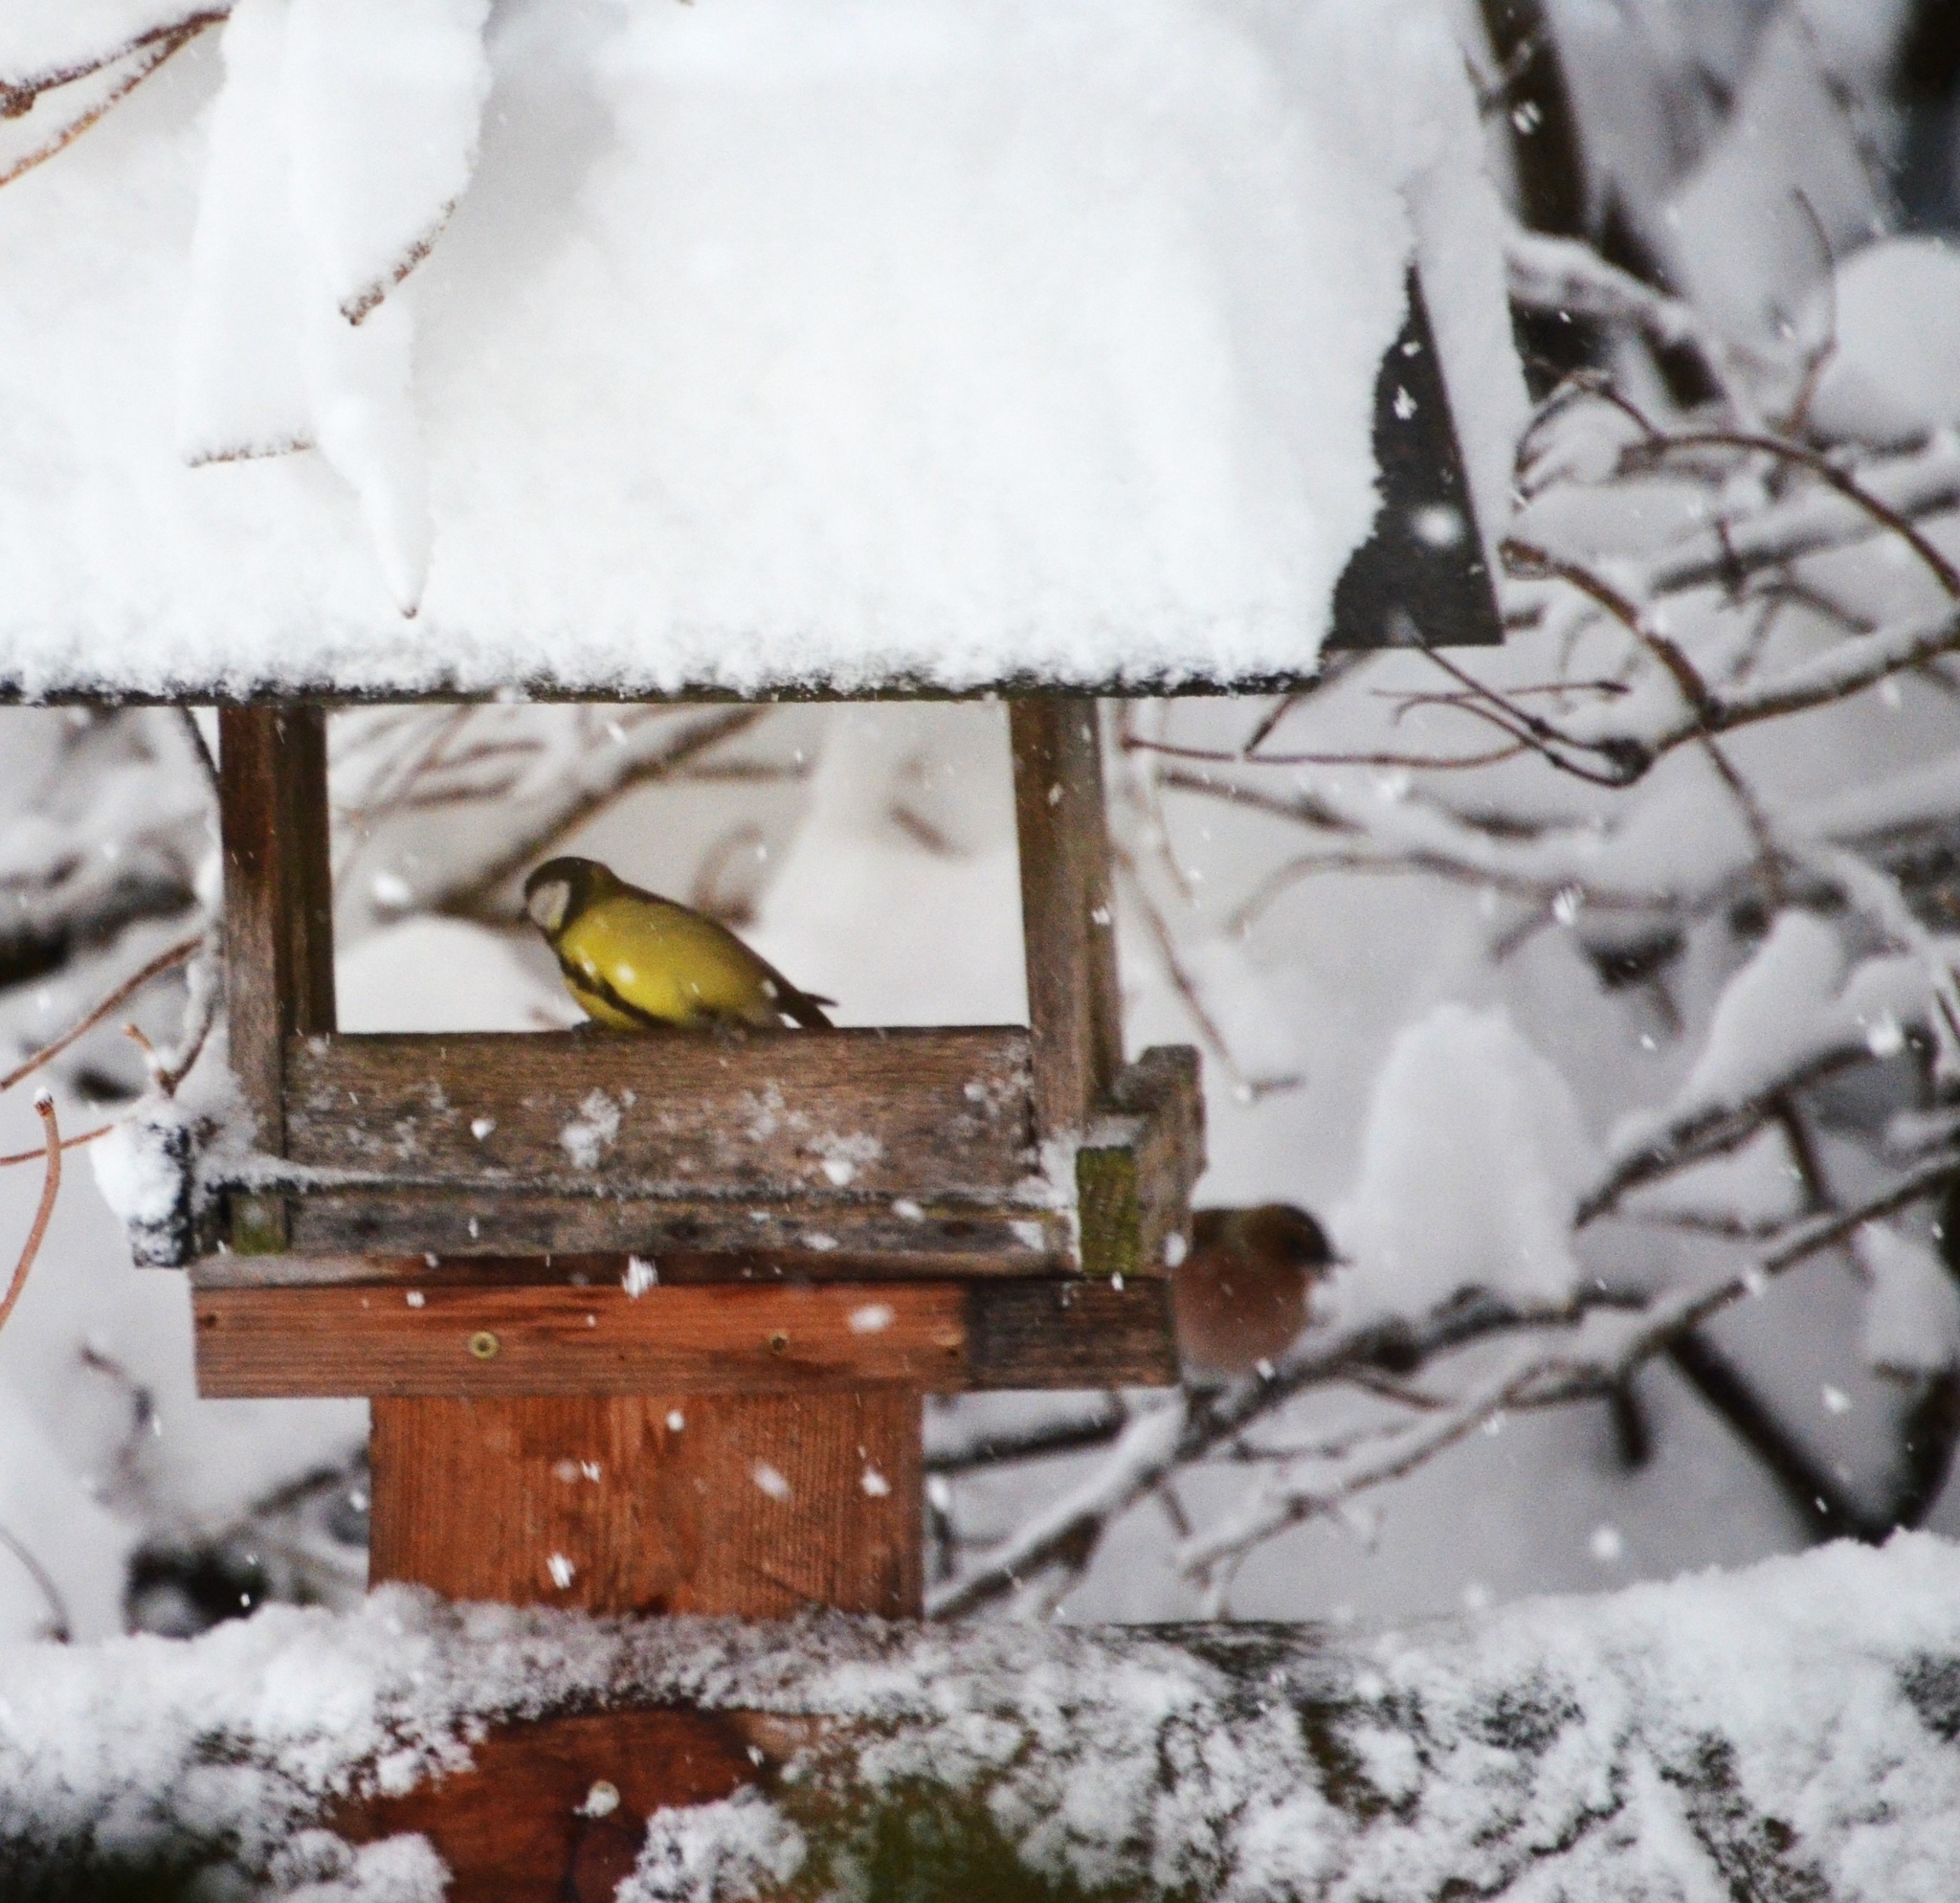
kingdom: Animalia
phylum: Chordata
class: Aves
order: Passeriformes
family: Paridae
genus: Parus
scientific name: Parus major
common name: Great tit
